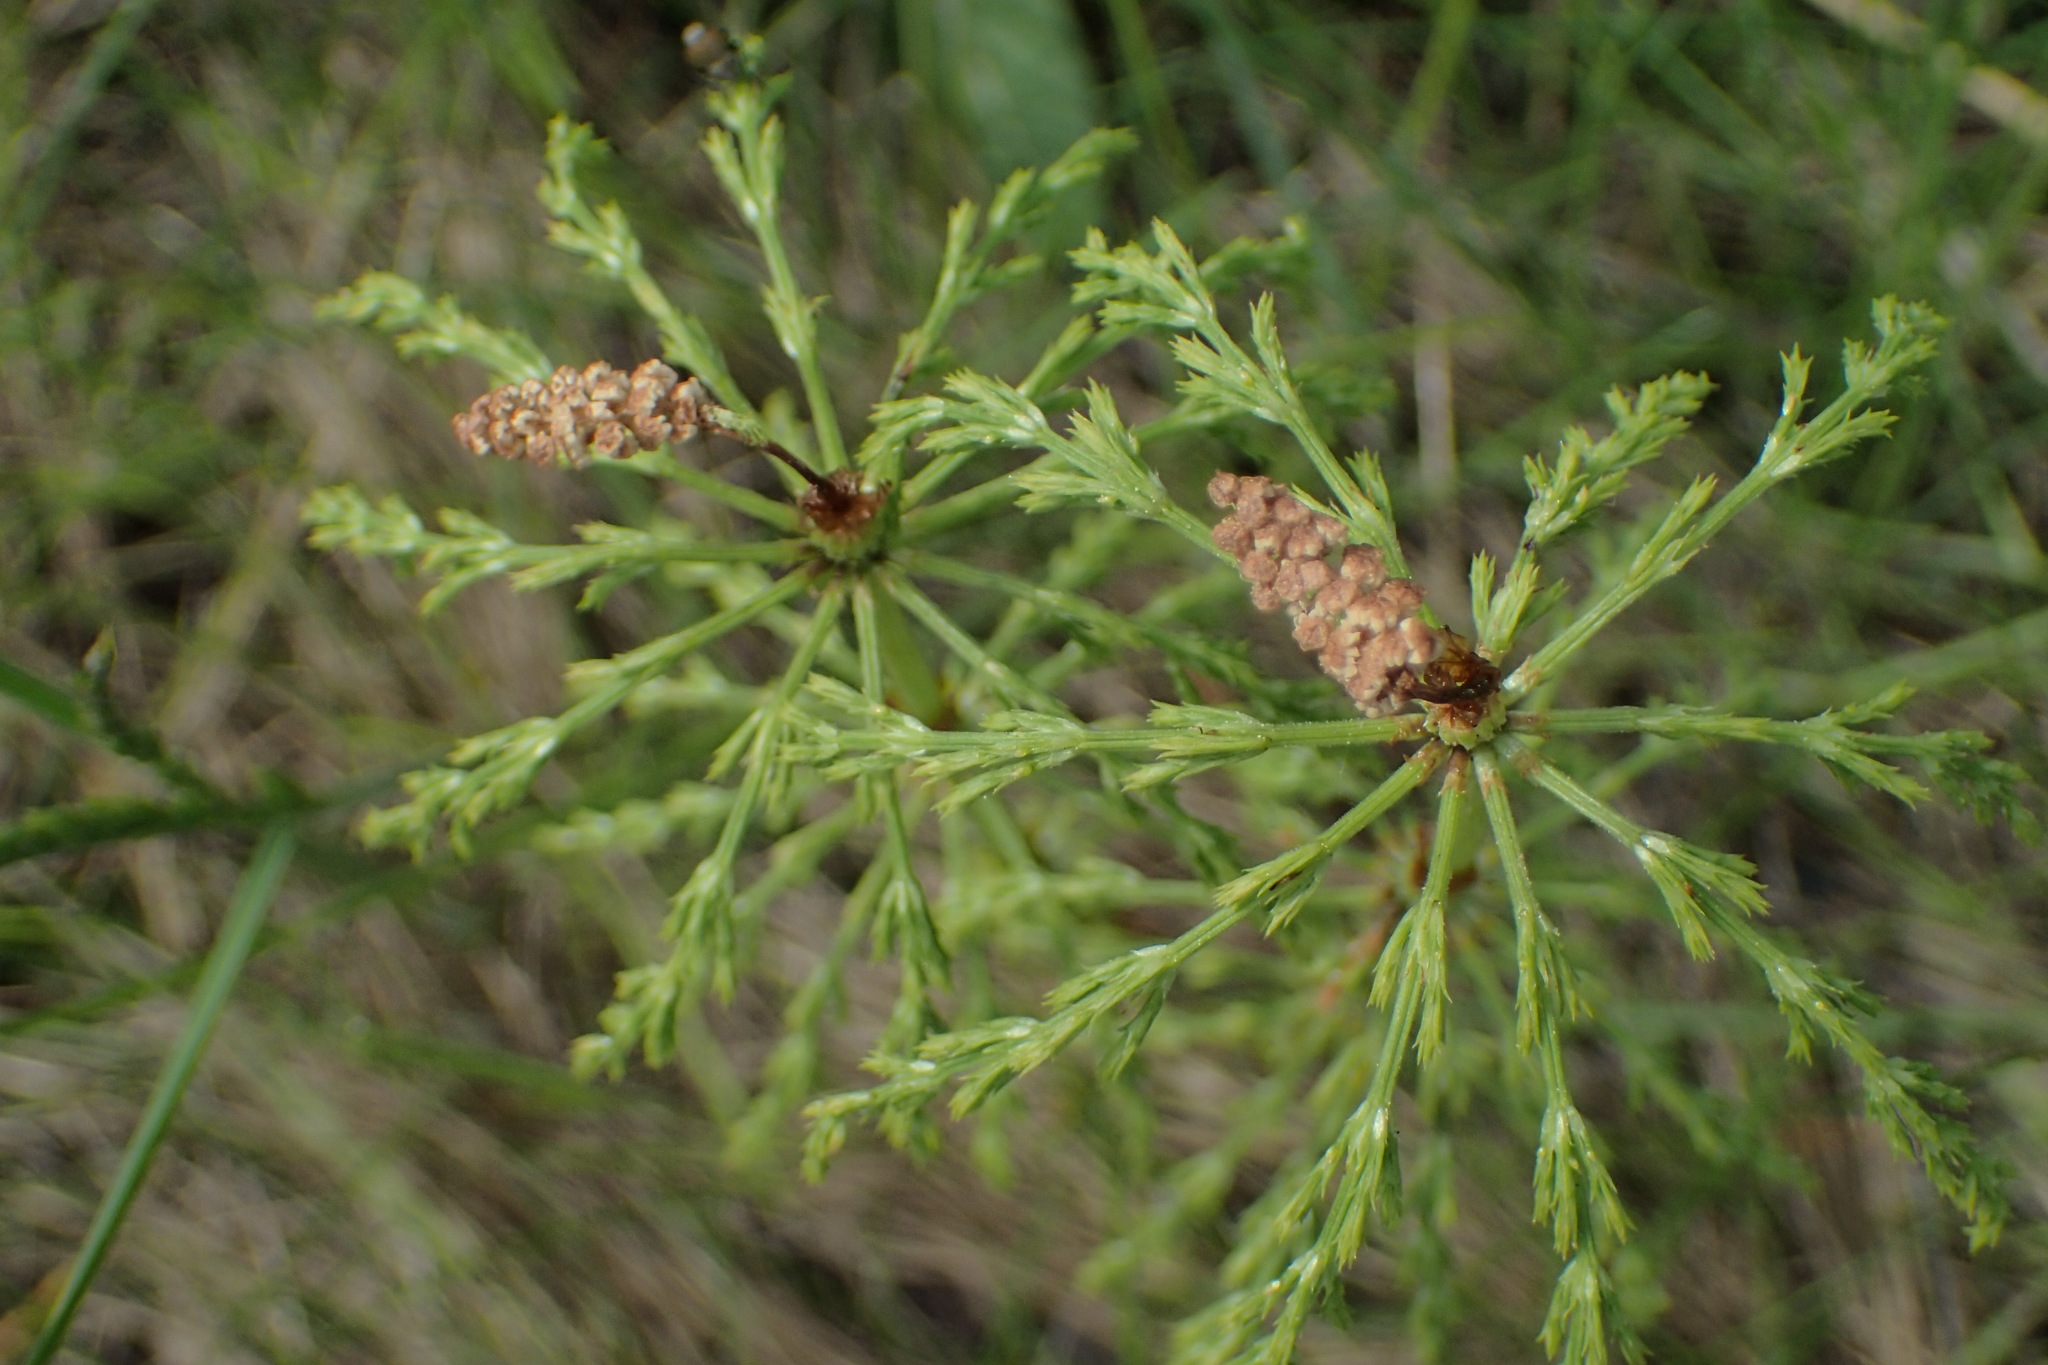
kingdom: Plantae
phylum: Tracheophyta
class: Polypodiopsida
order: Equisetales
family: Equisetaceae
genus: Equisetum
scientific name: Equisetum sylvaticum
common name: Wood horsetail
